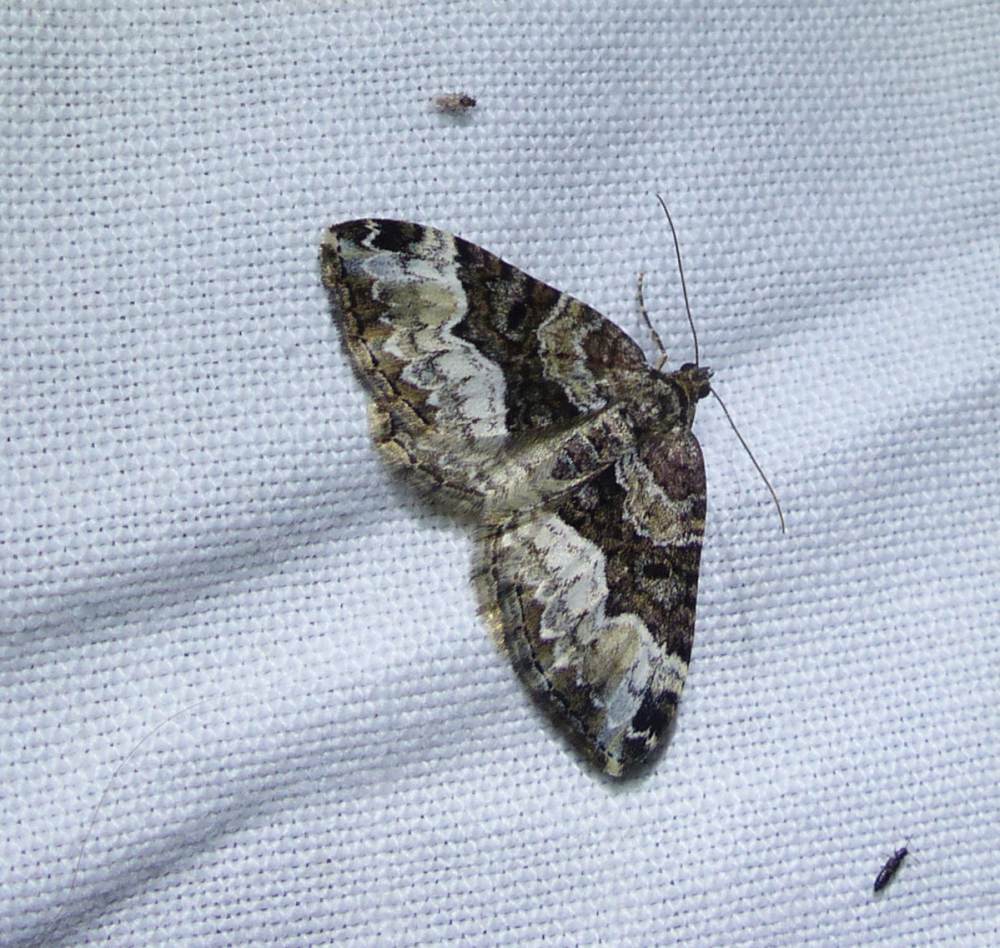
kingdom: Animalia
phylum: Arthropoda
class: Insecta
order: Lepidoptera
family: Geometridae
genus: Euphyia
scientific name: Euphyia intermediata
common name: Sharp-angled carpet
